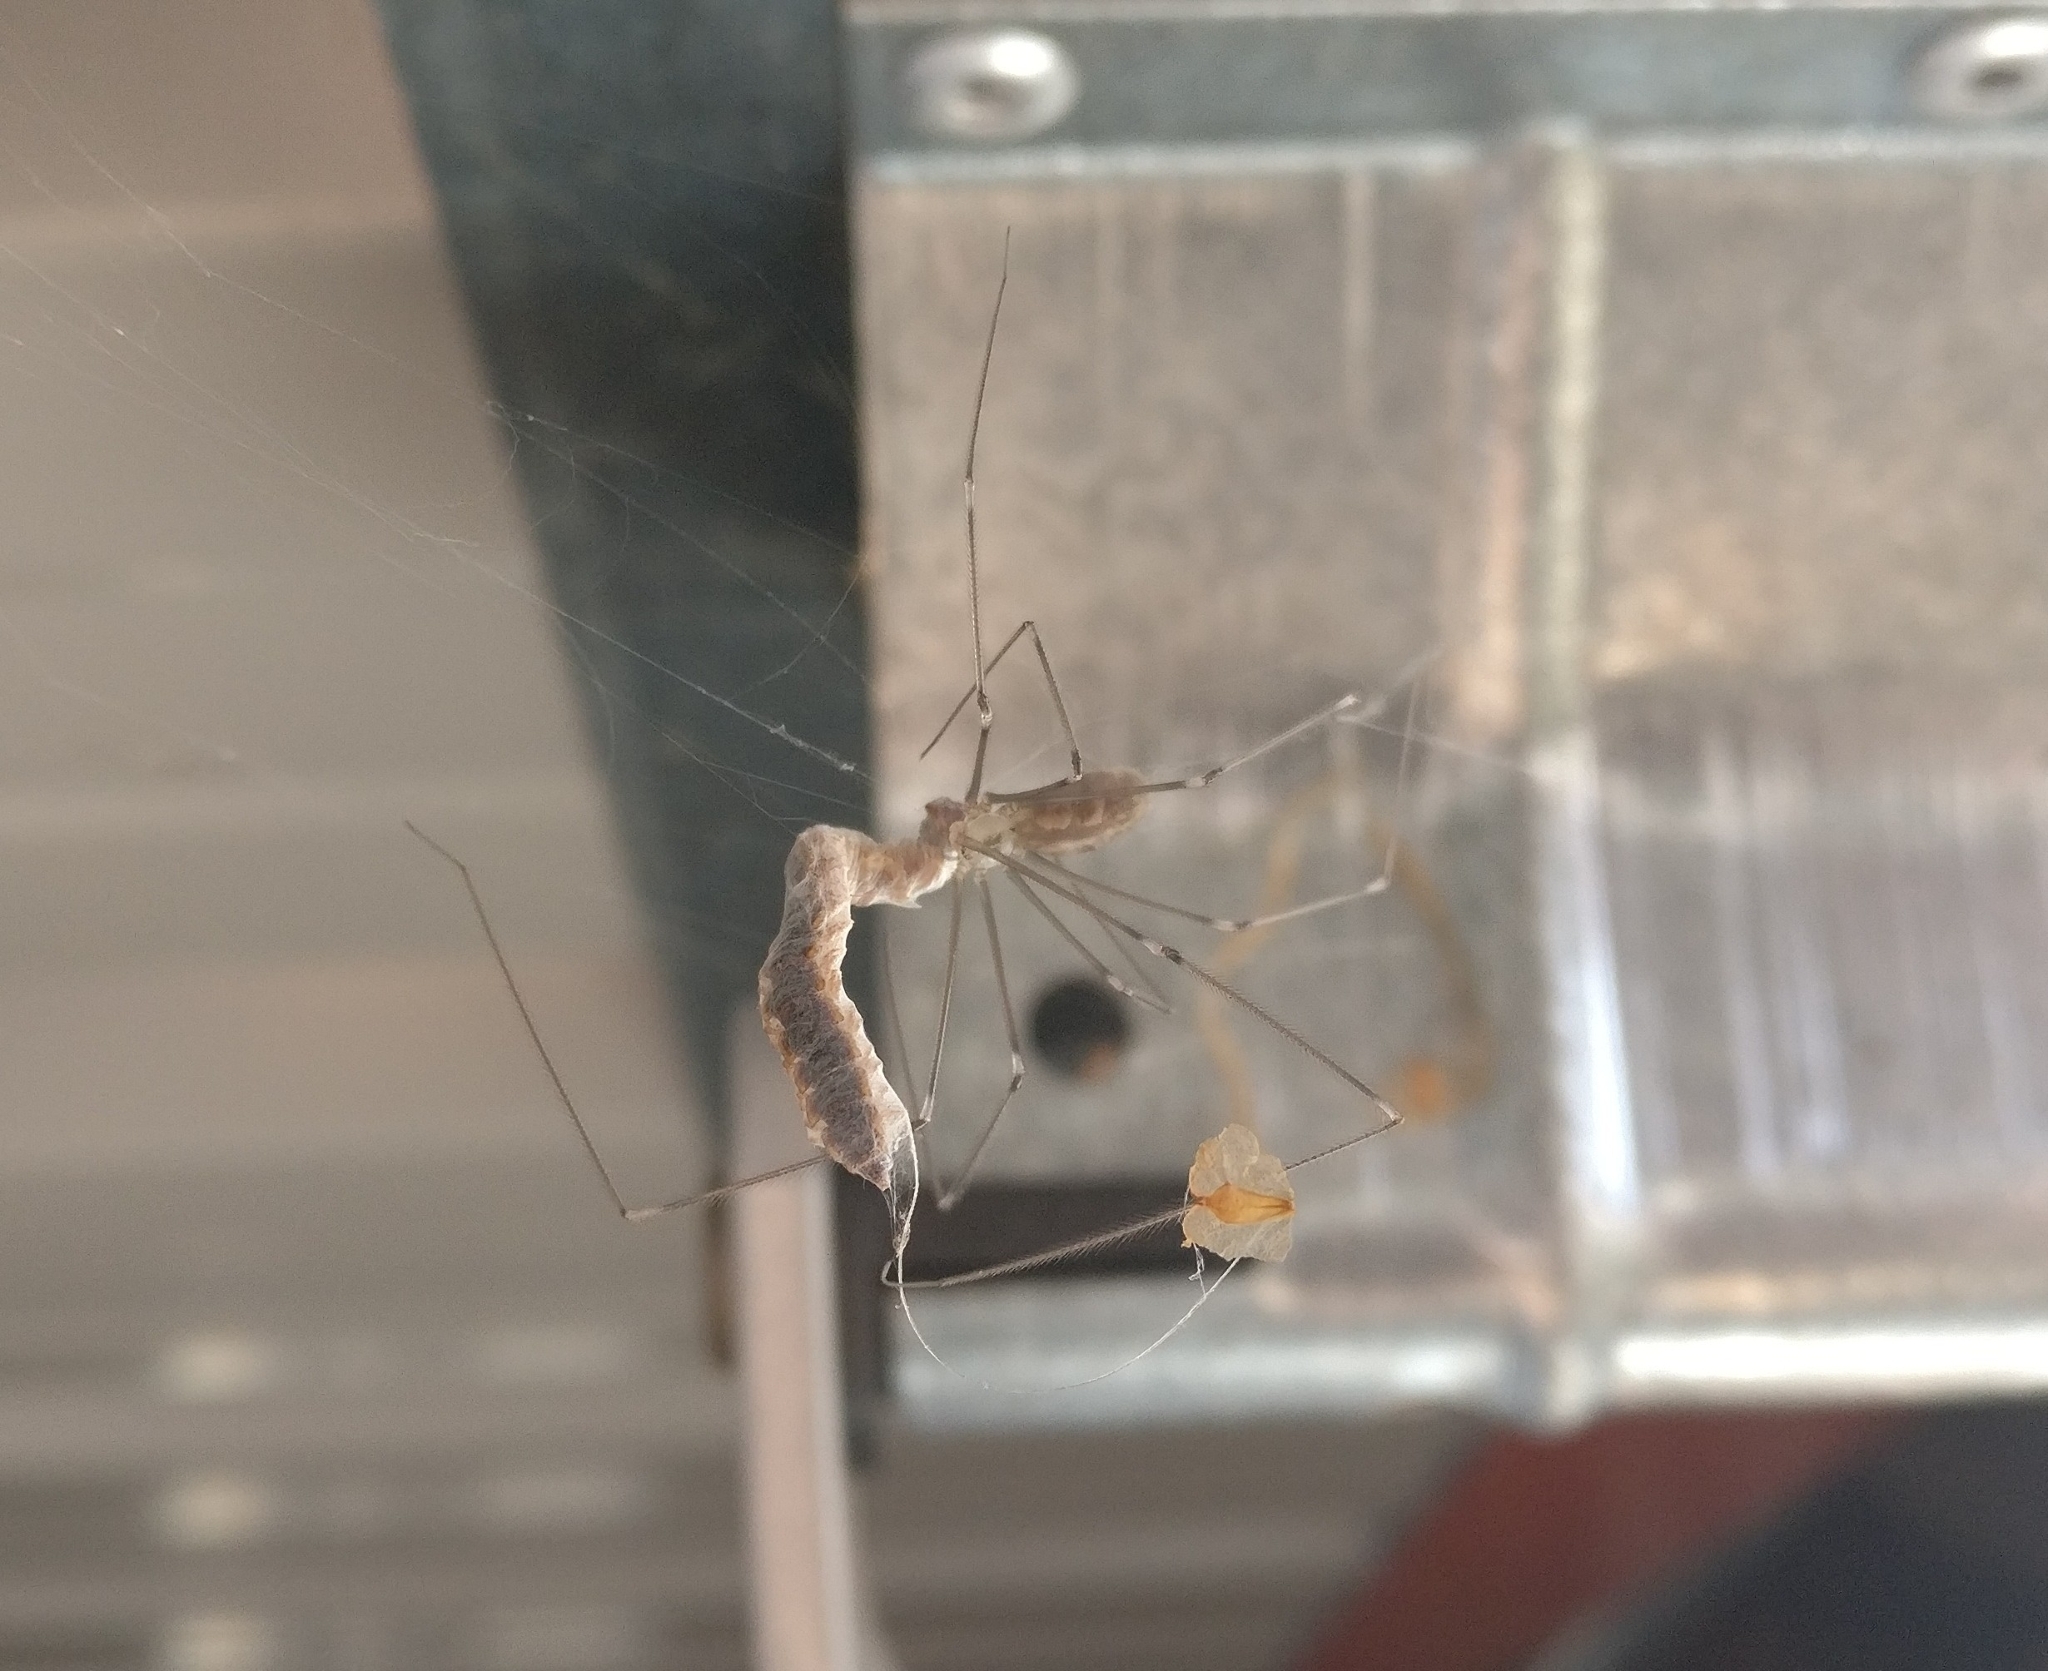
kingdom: Animalia
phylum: Arthropoda
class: Arachnida
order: Araneae
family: Pholcidae
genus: Pholcus
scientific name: Pholcus phalangioides
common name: Longbodied cellar spider
